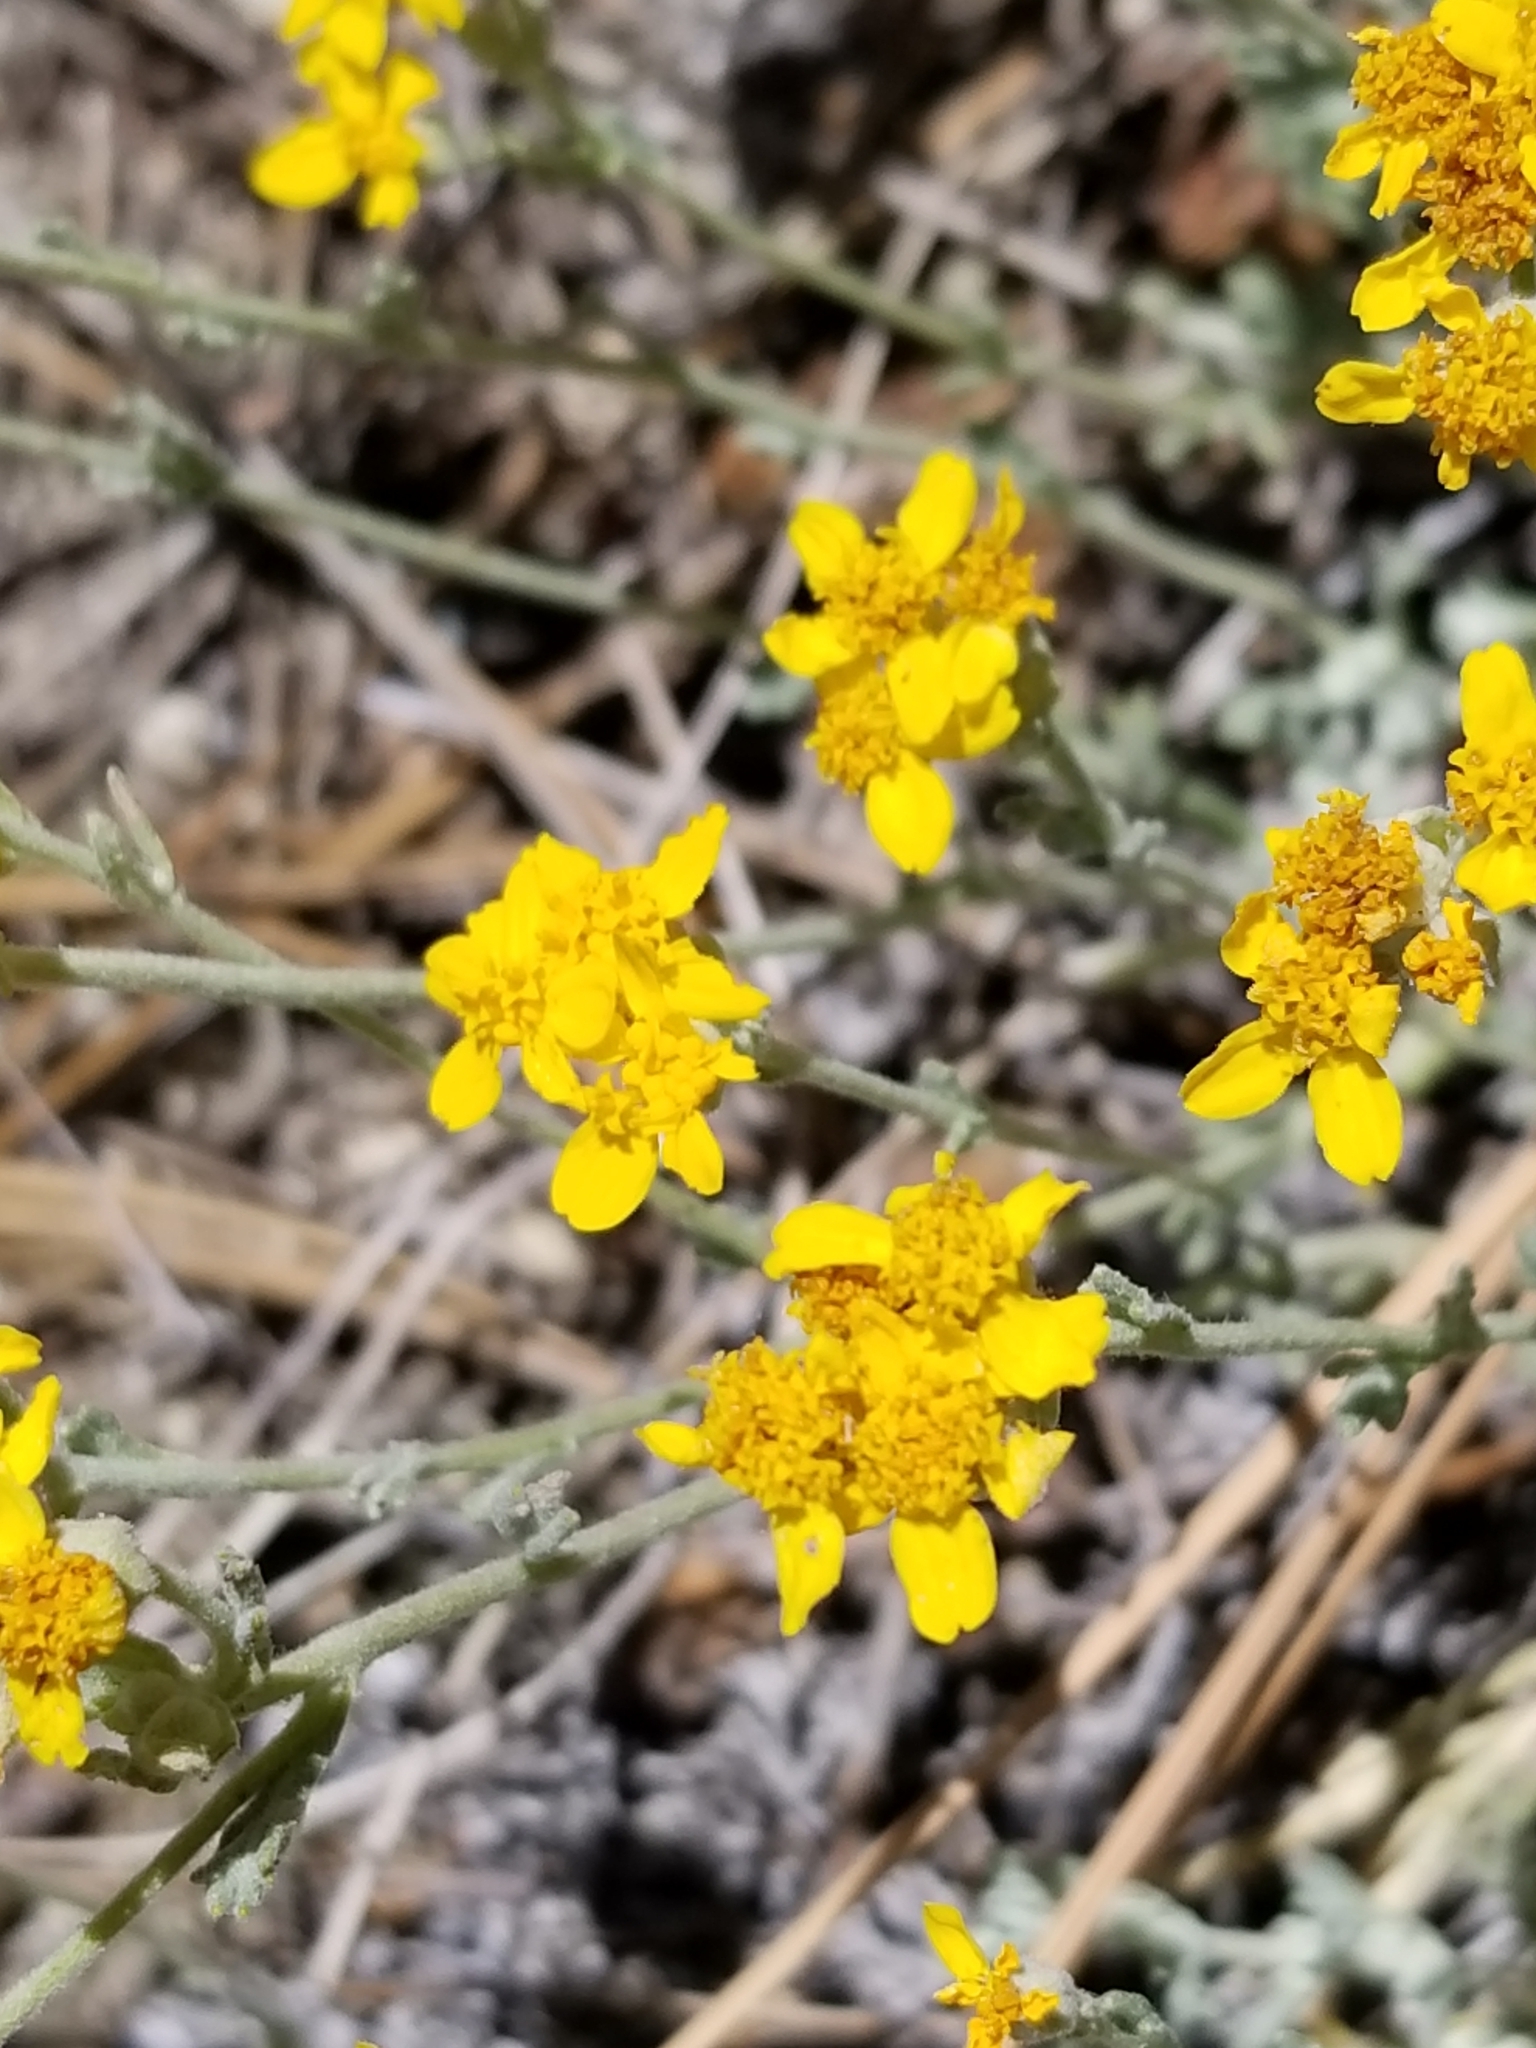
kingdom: Plantae
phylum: Tracheophyta
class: Magnoliopsida
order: Asterales
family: Asteraceae
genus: Eriophyllum
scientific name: Eriophyllum confertiflorum
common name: Golden-yarrow
